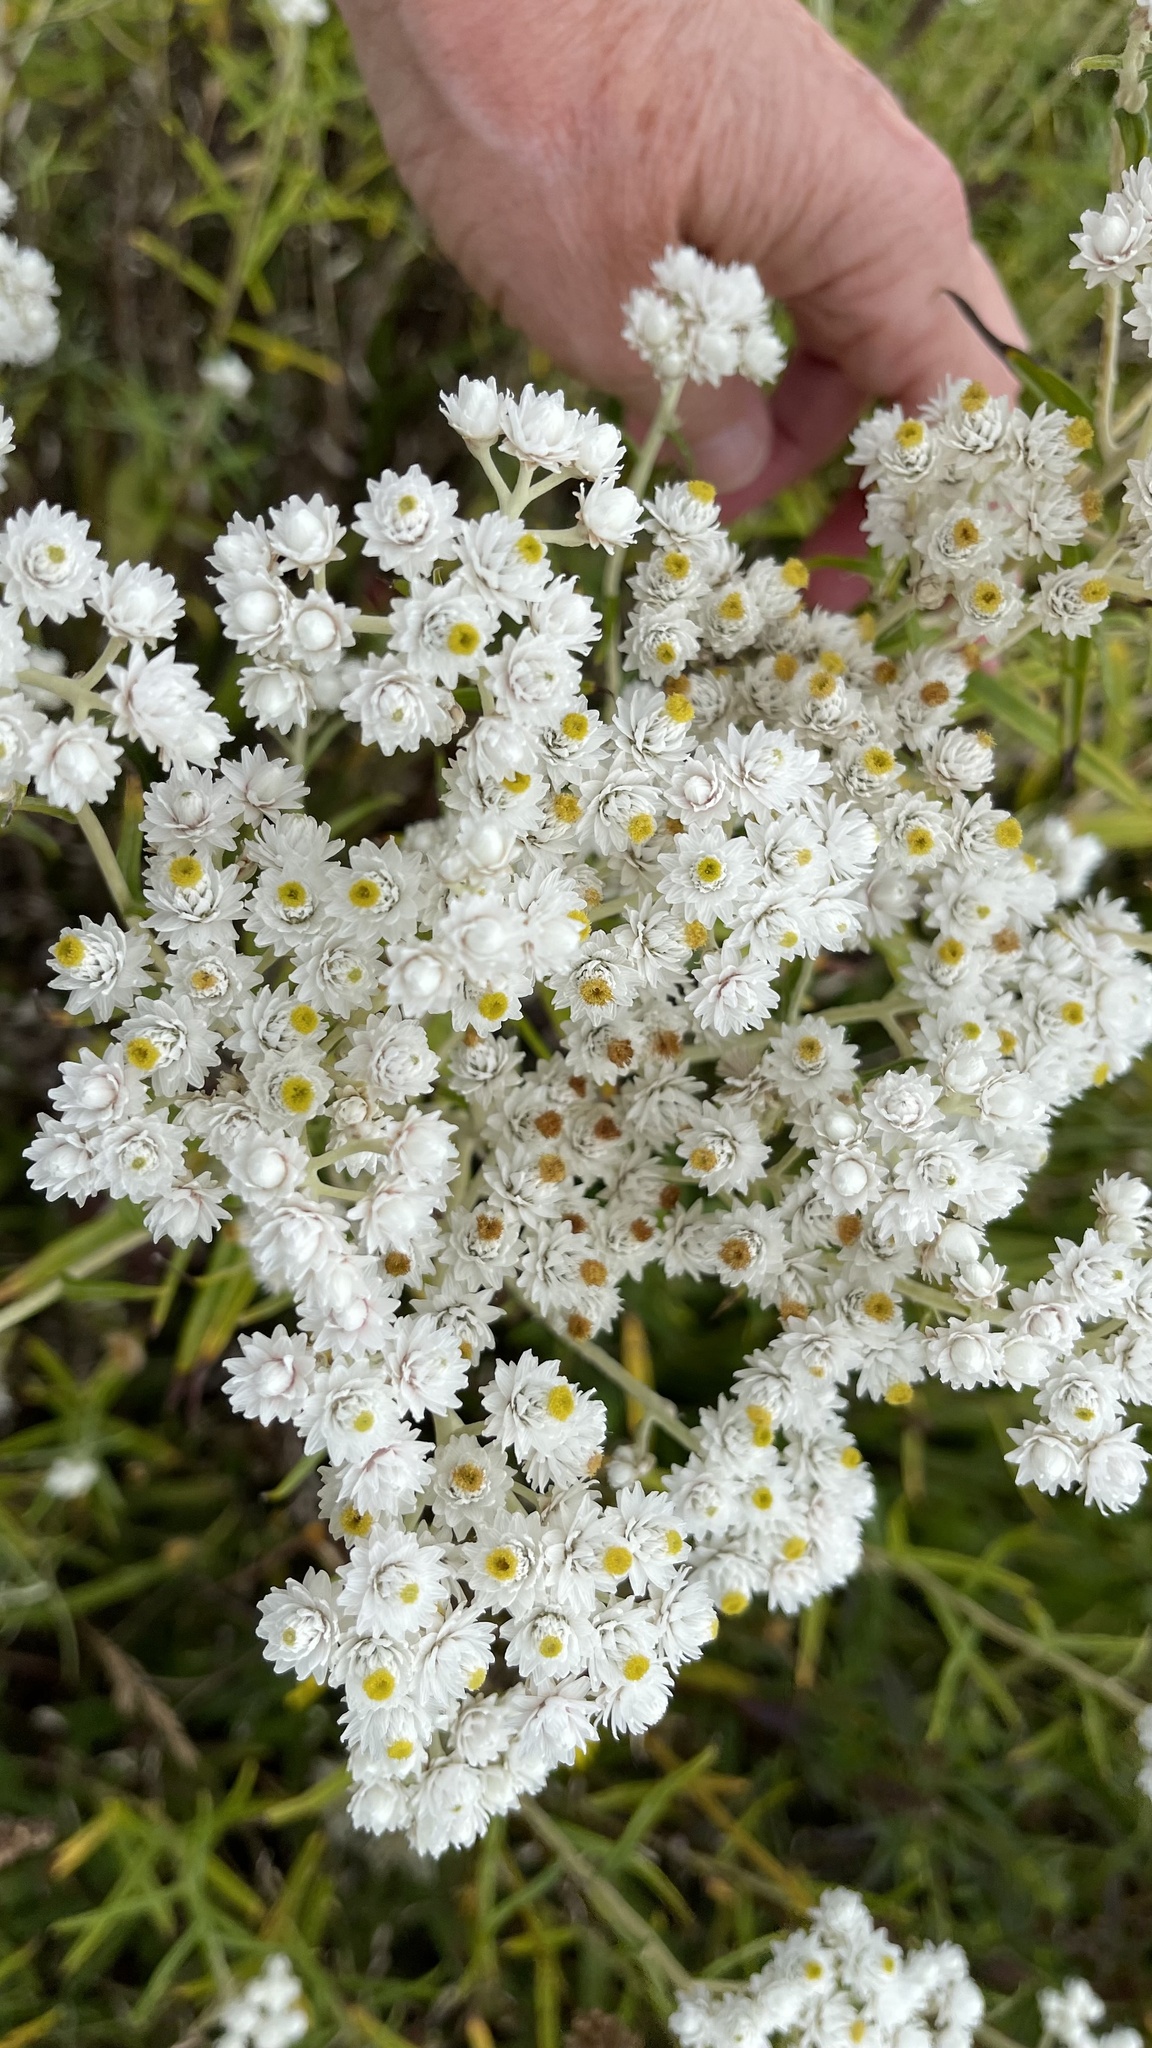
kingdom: Plantae
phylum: Tracheophyta
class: Magnoliopsida
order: Asterales
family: Asteraceae
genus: Anaphalis
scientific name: Anaphalis margaritacea
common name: Pearly everlasting
